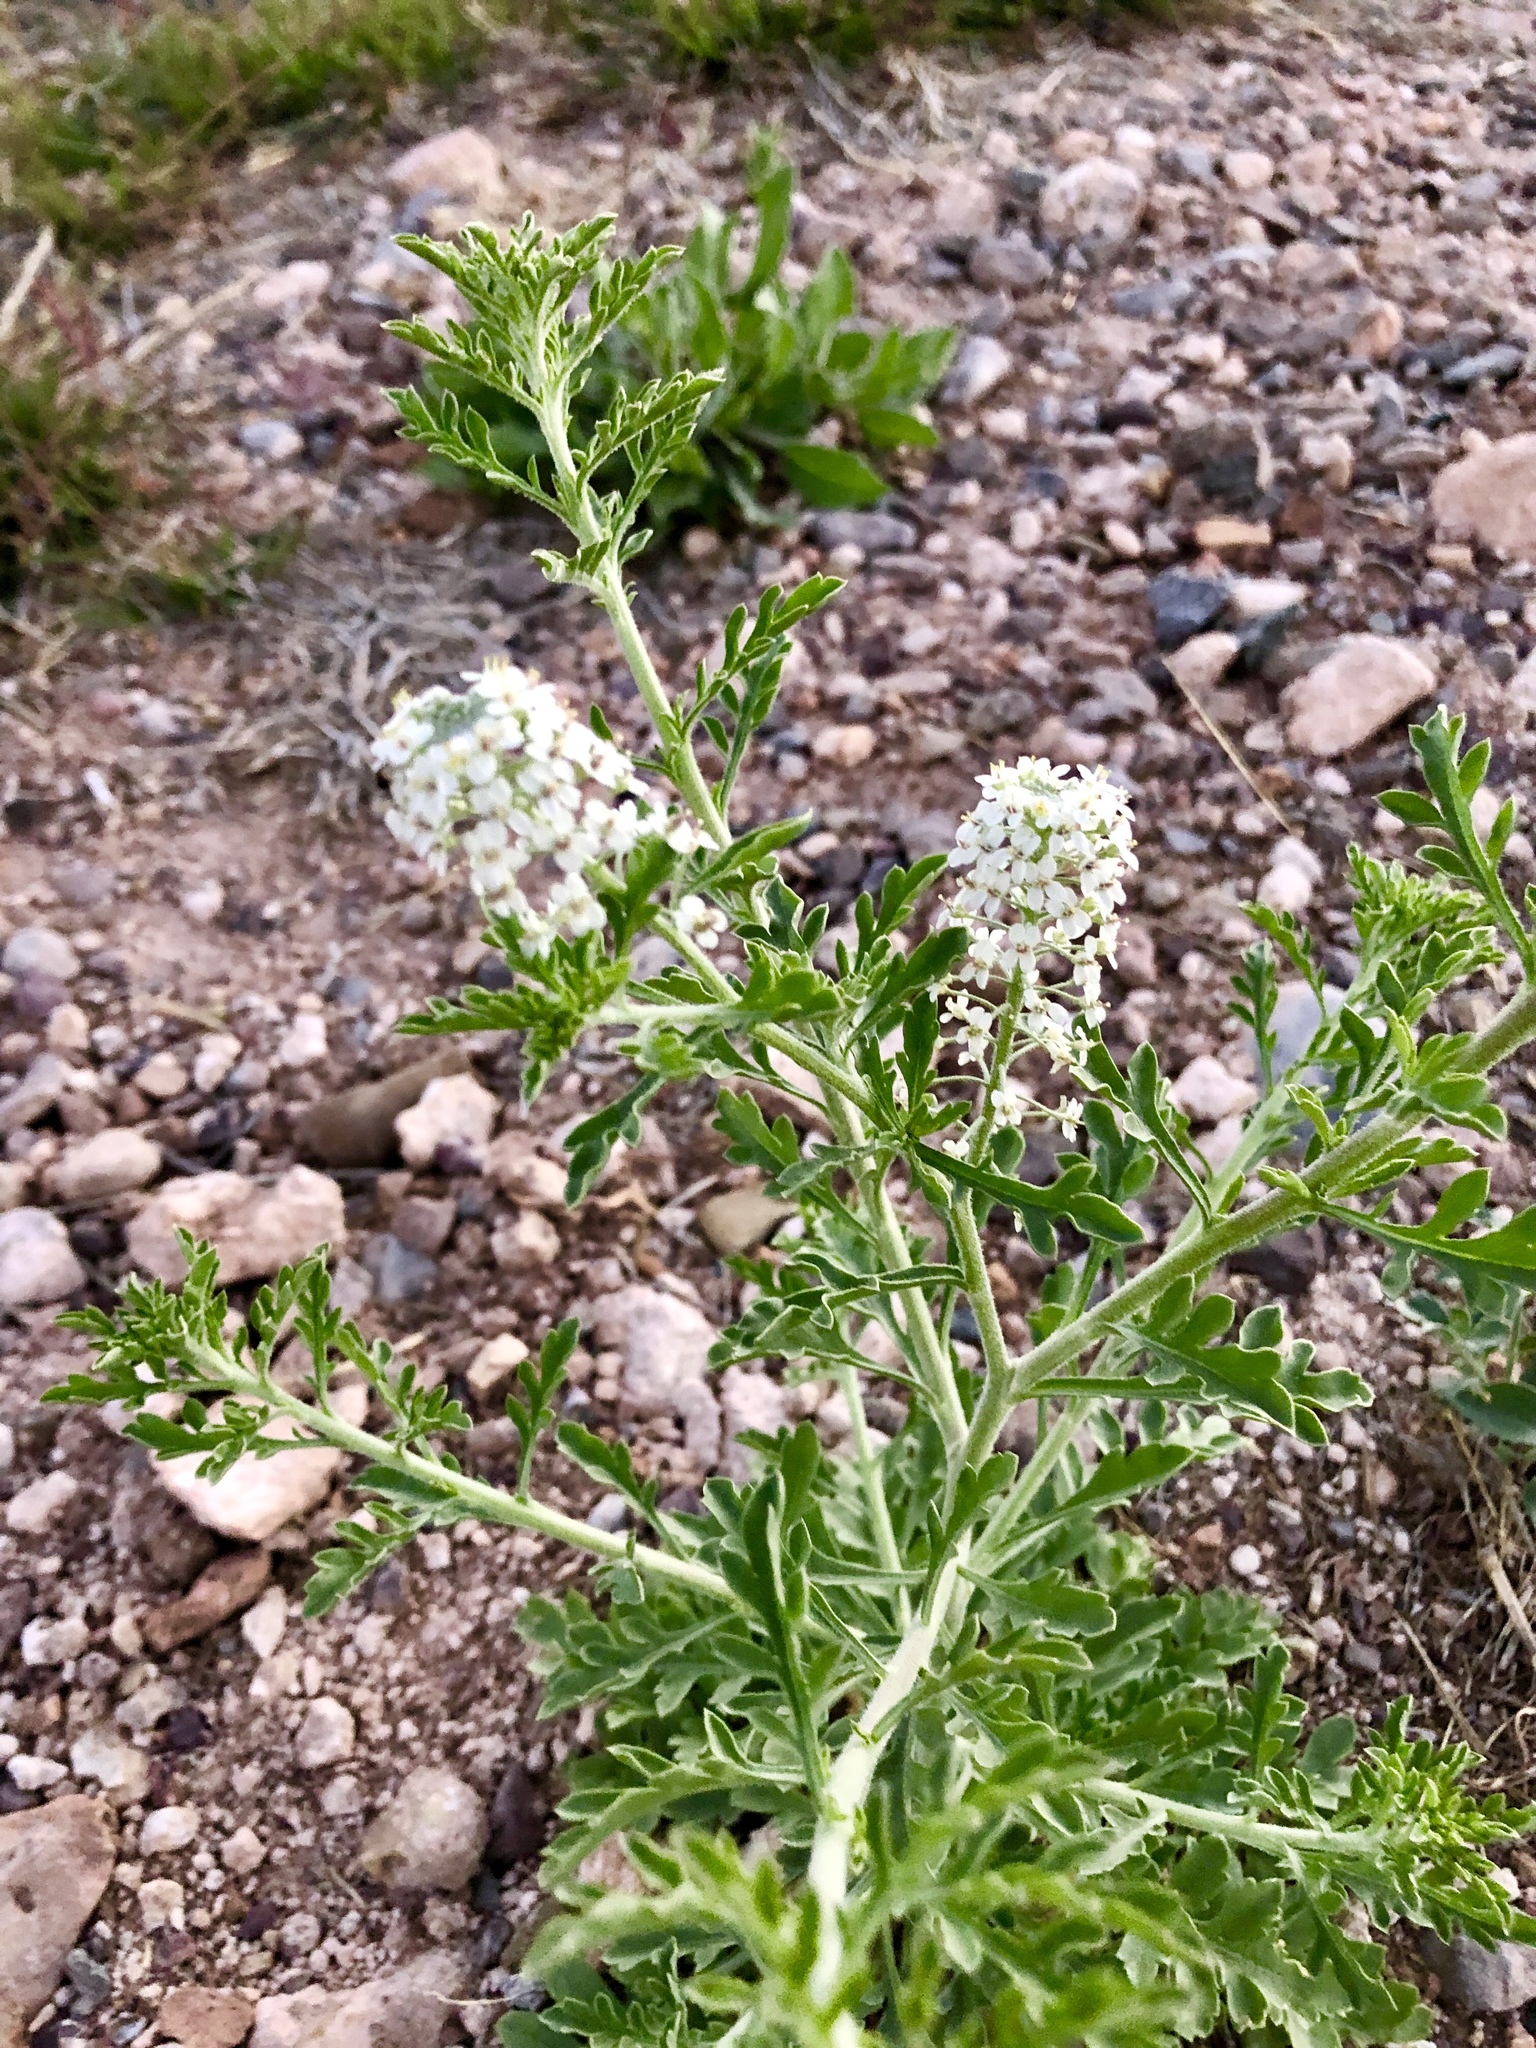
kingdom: Plantae
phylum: Tracheophyta
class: Magnoliopsida
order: Brassicales
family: Brassicaceae
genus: Lepidium
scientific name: Lepidium thurberi
